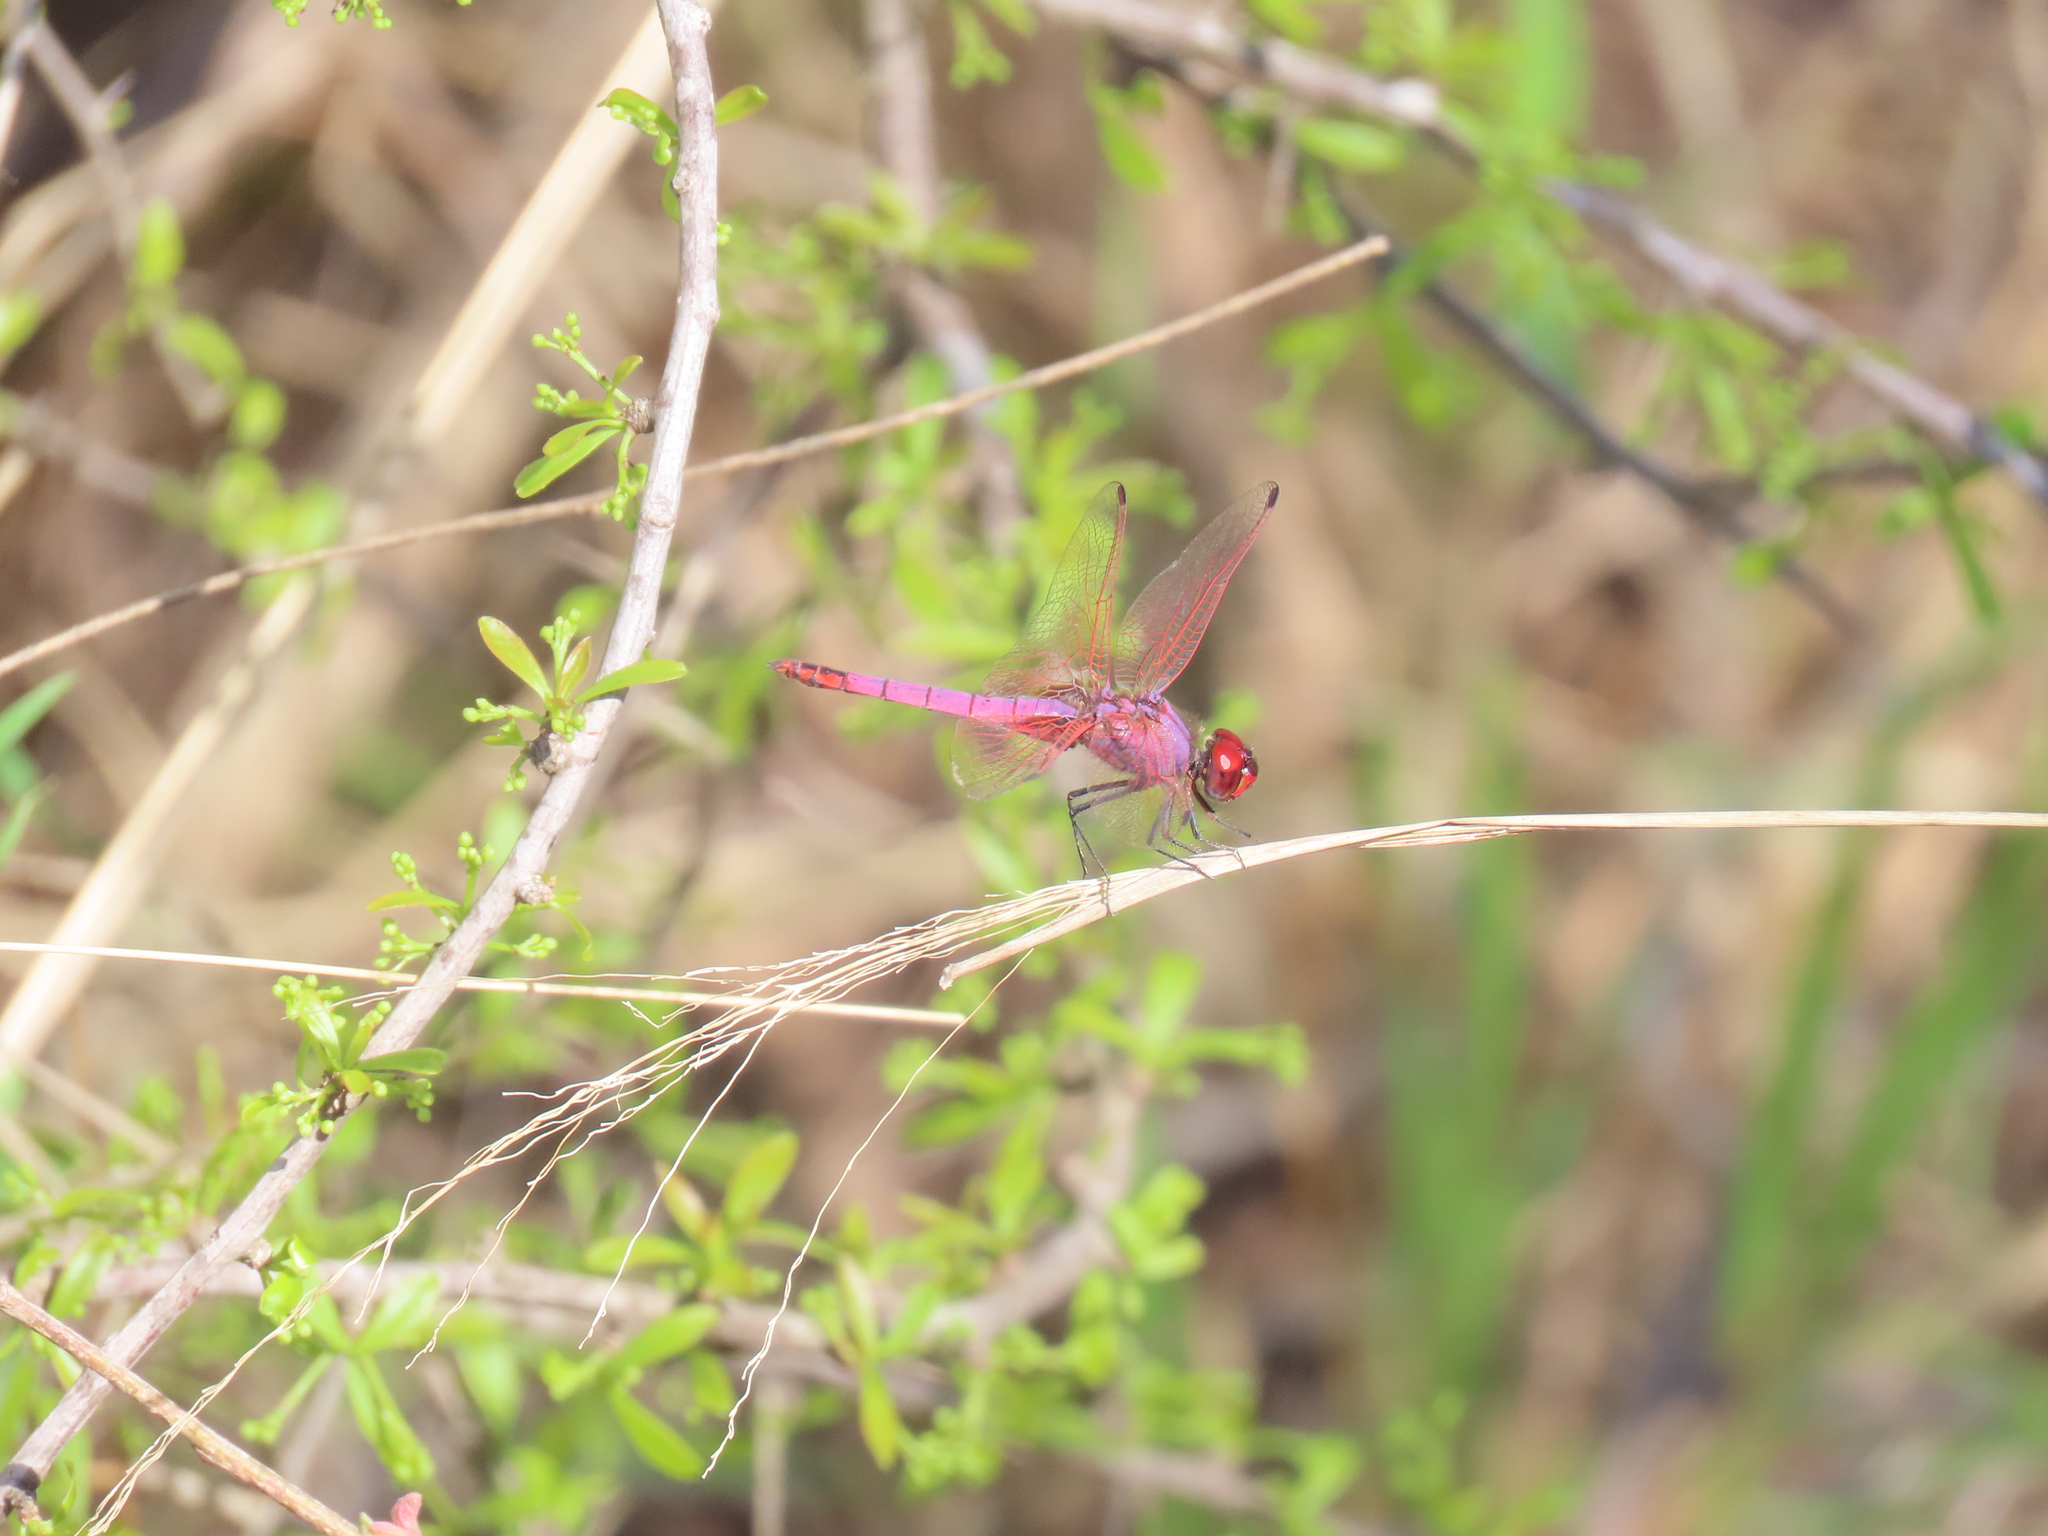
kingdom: Animalia
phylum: Arthropoda
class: Insecta
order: Odonata
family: Libellulidae
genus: Trithemis
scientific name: Trithemis annulata
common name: Violet dropwing
